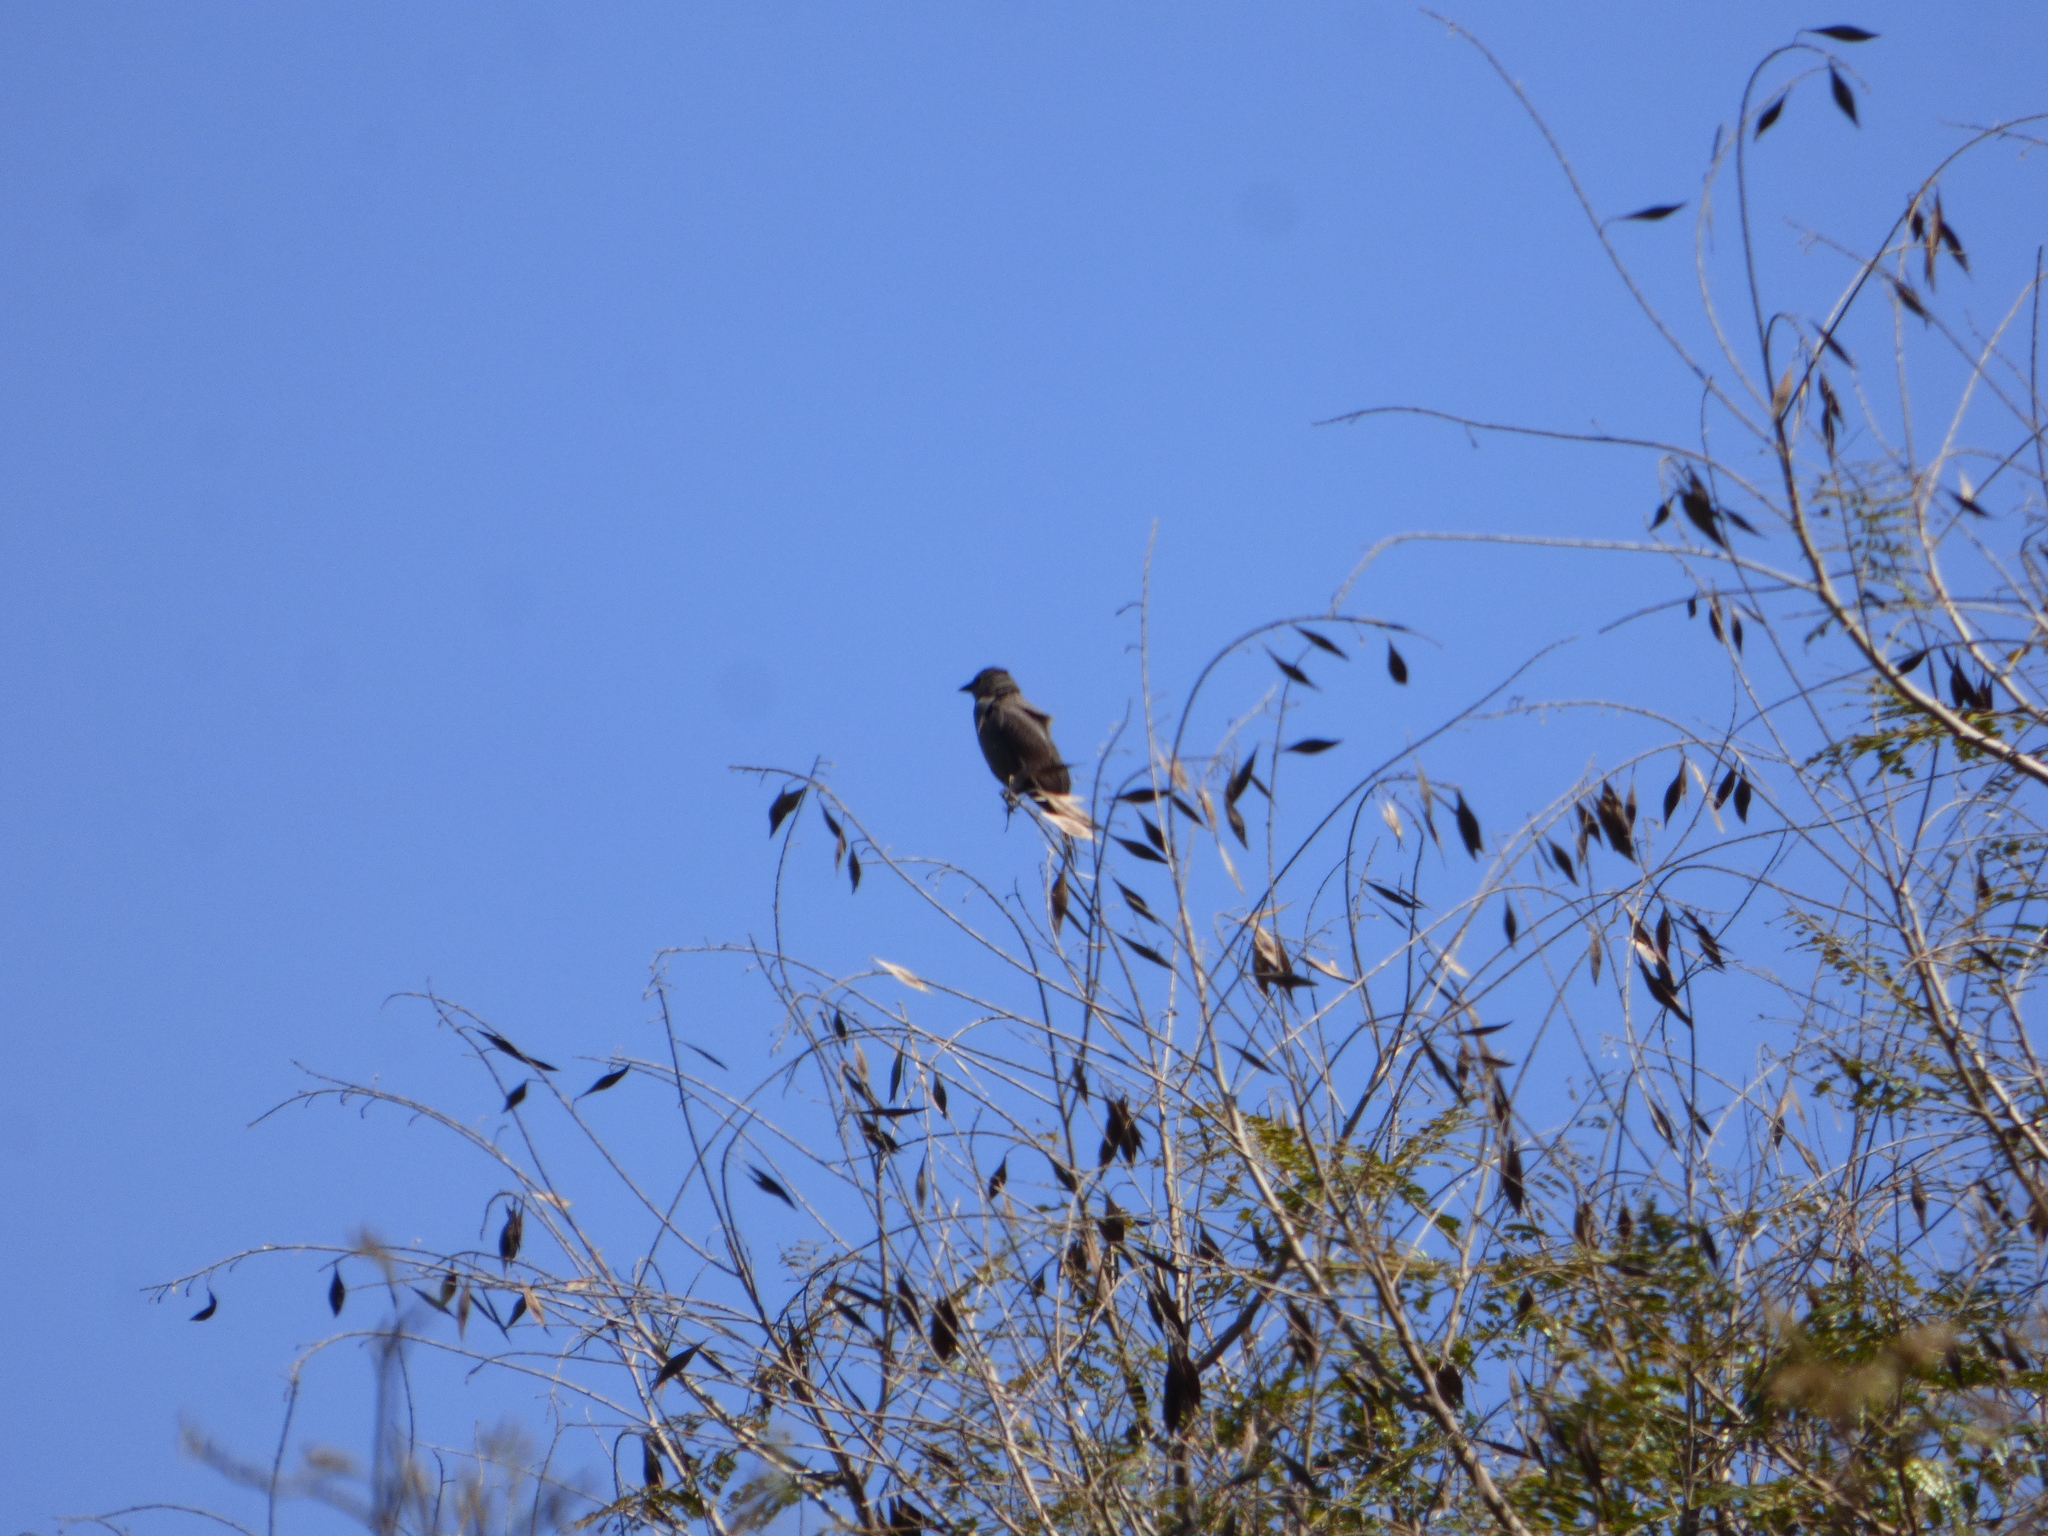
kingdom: Animalia
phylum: Chordata
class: Aves
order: Passeriformes
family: Icteridae
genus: Molothrus
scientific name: Molothrus bonariensis
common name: Shiny cowbird
